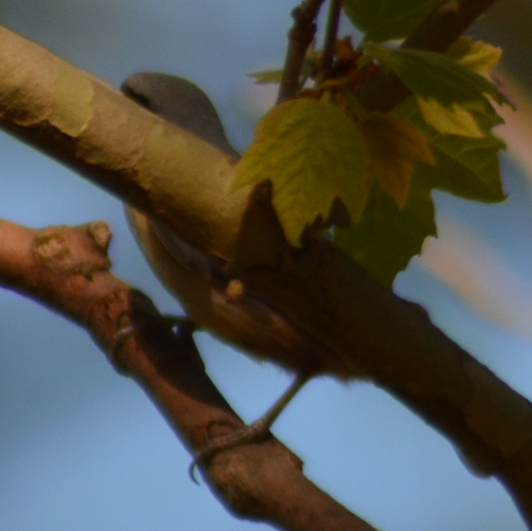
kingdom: Animalia
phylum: Chordata
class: Aves
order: Passeriformes
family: Sittidae
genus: Sitta
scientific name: Sitta europaea
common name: Eurasian nuthatch
